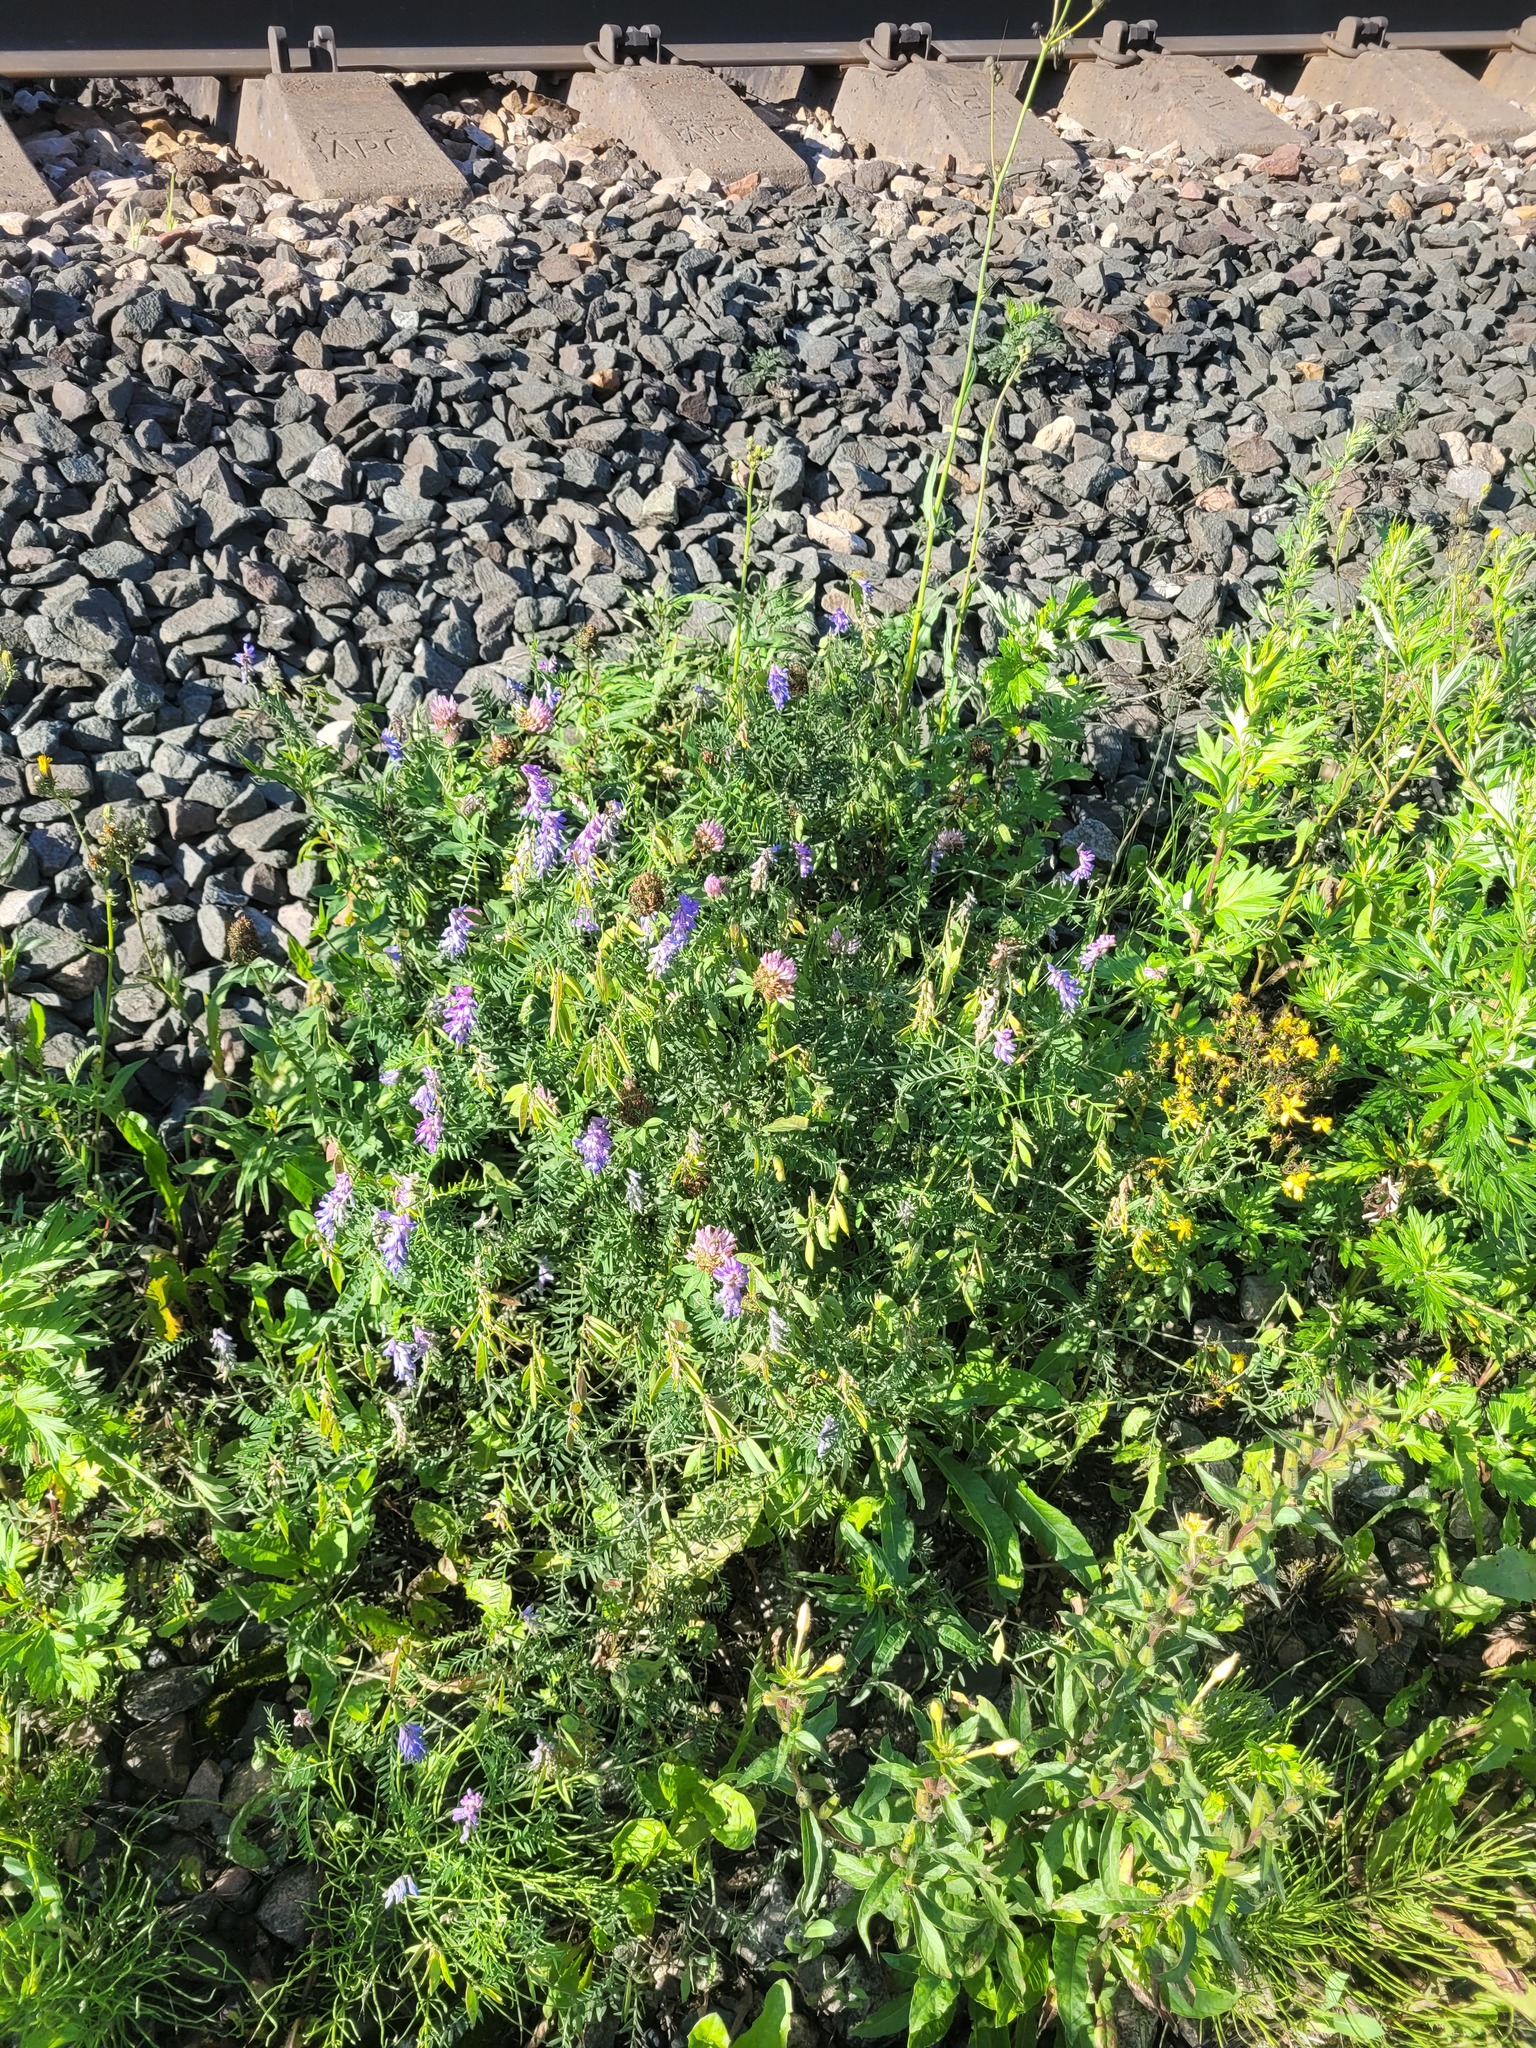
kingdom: Plantae
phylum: Tracheophyta
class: Magnoliopsida
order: Fabales
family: Fabaceae
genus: Vicia
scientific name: Vicia cracca
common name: Bird vetch
